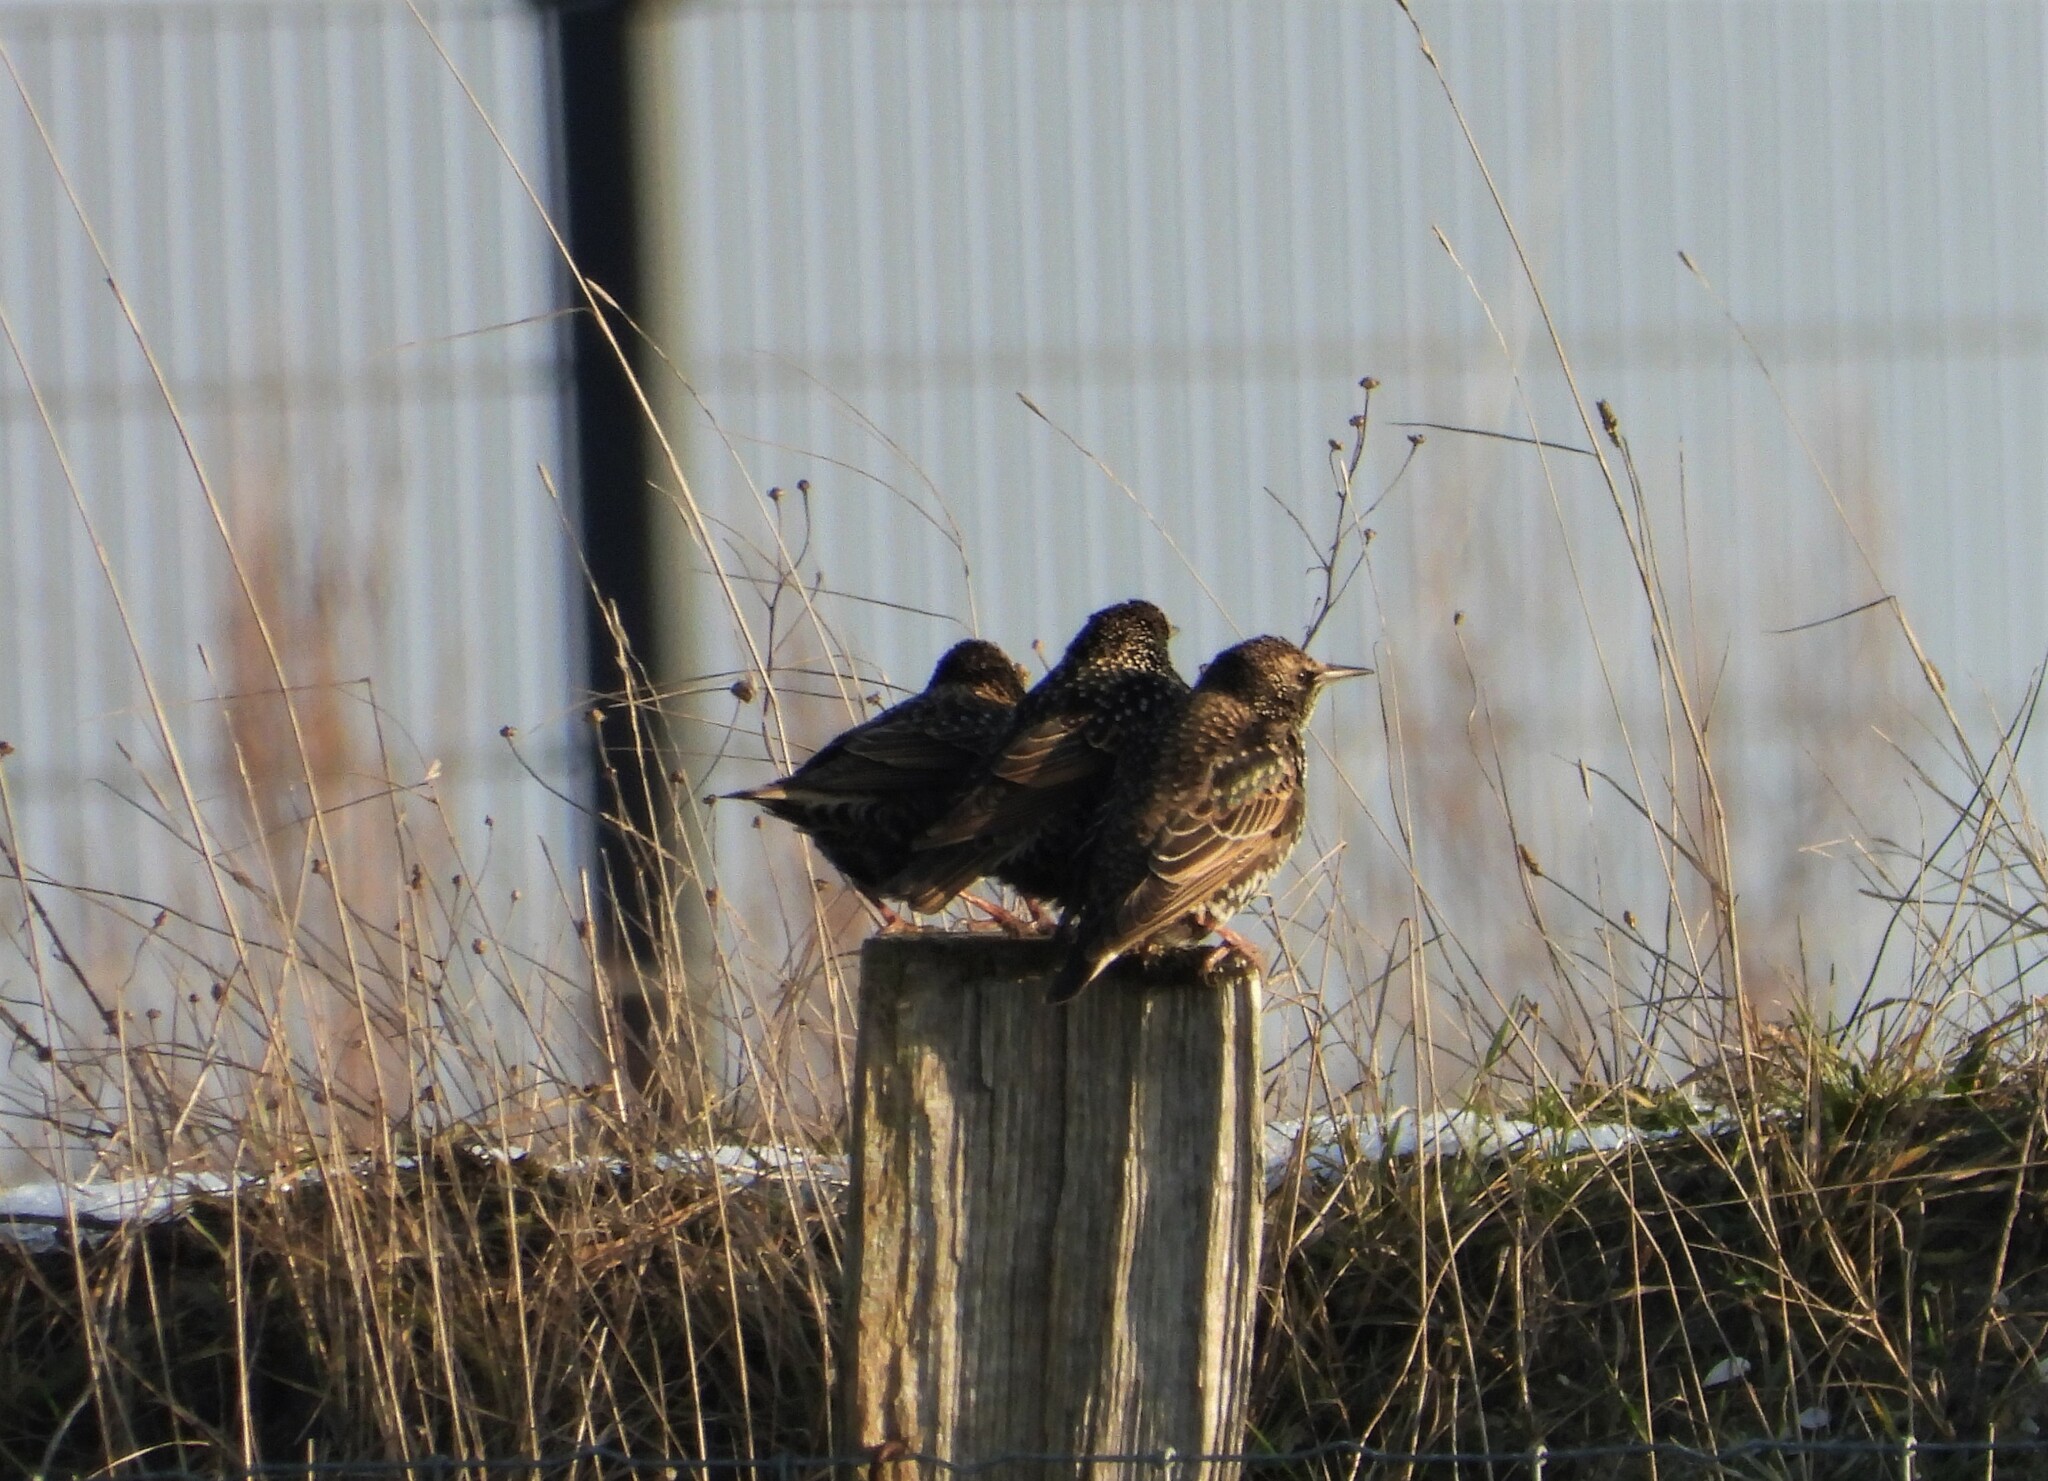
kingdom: Animalia
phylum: Chordata
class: Aves
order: Passeriformes
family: Sturnidae
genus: Sturnus
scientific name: Sturnus vulgaris
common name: Common starling
